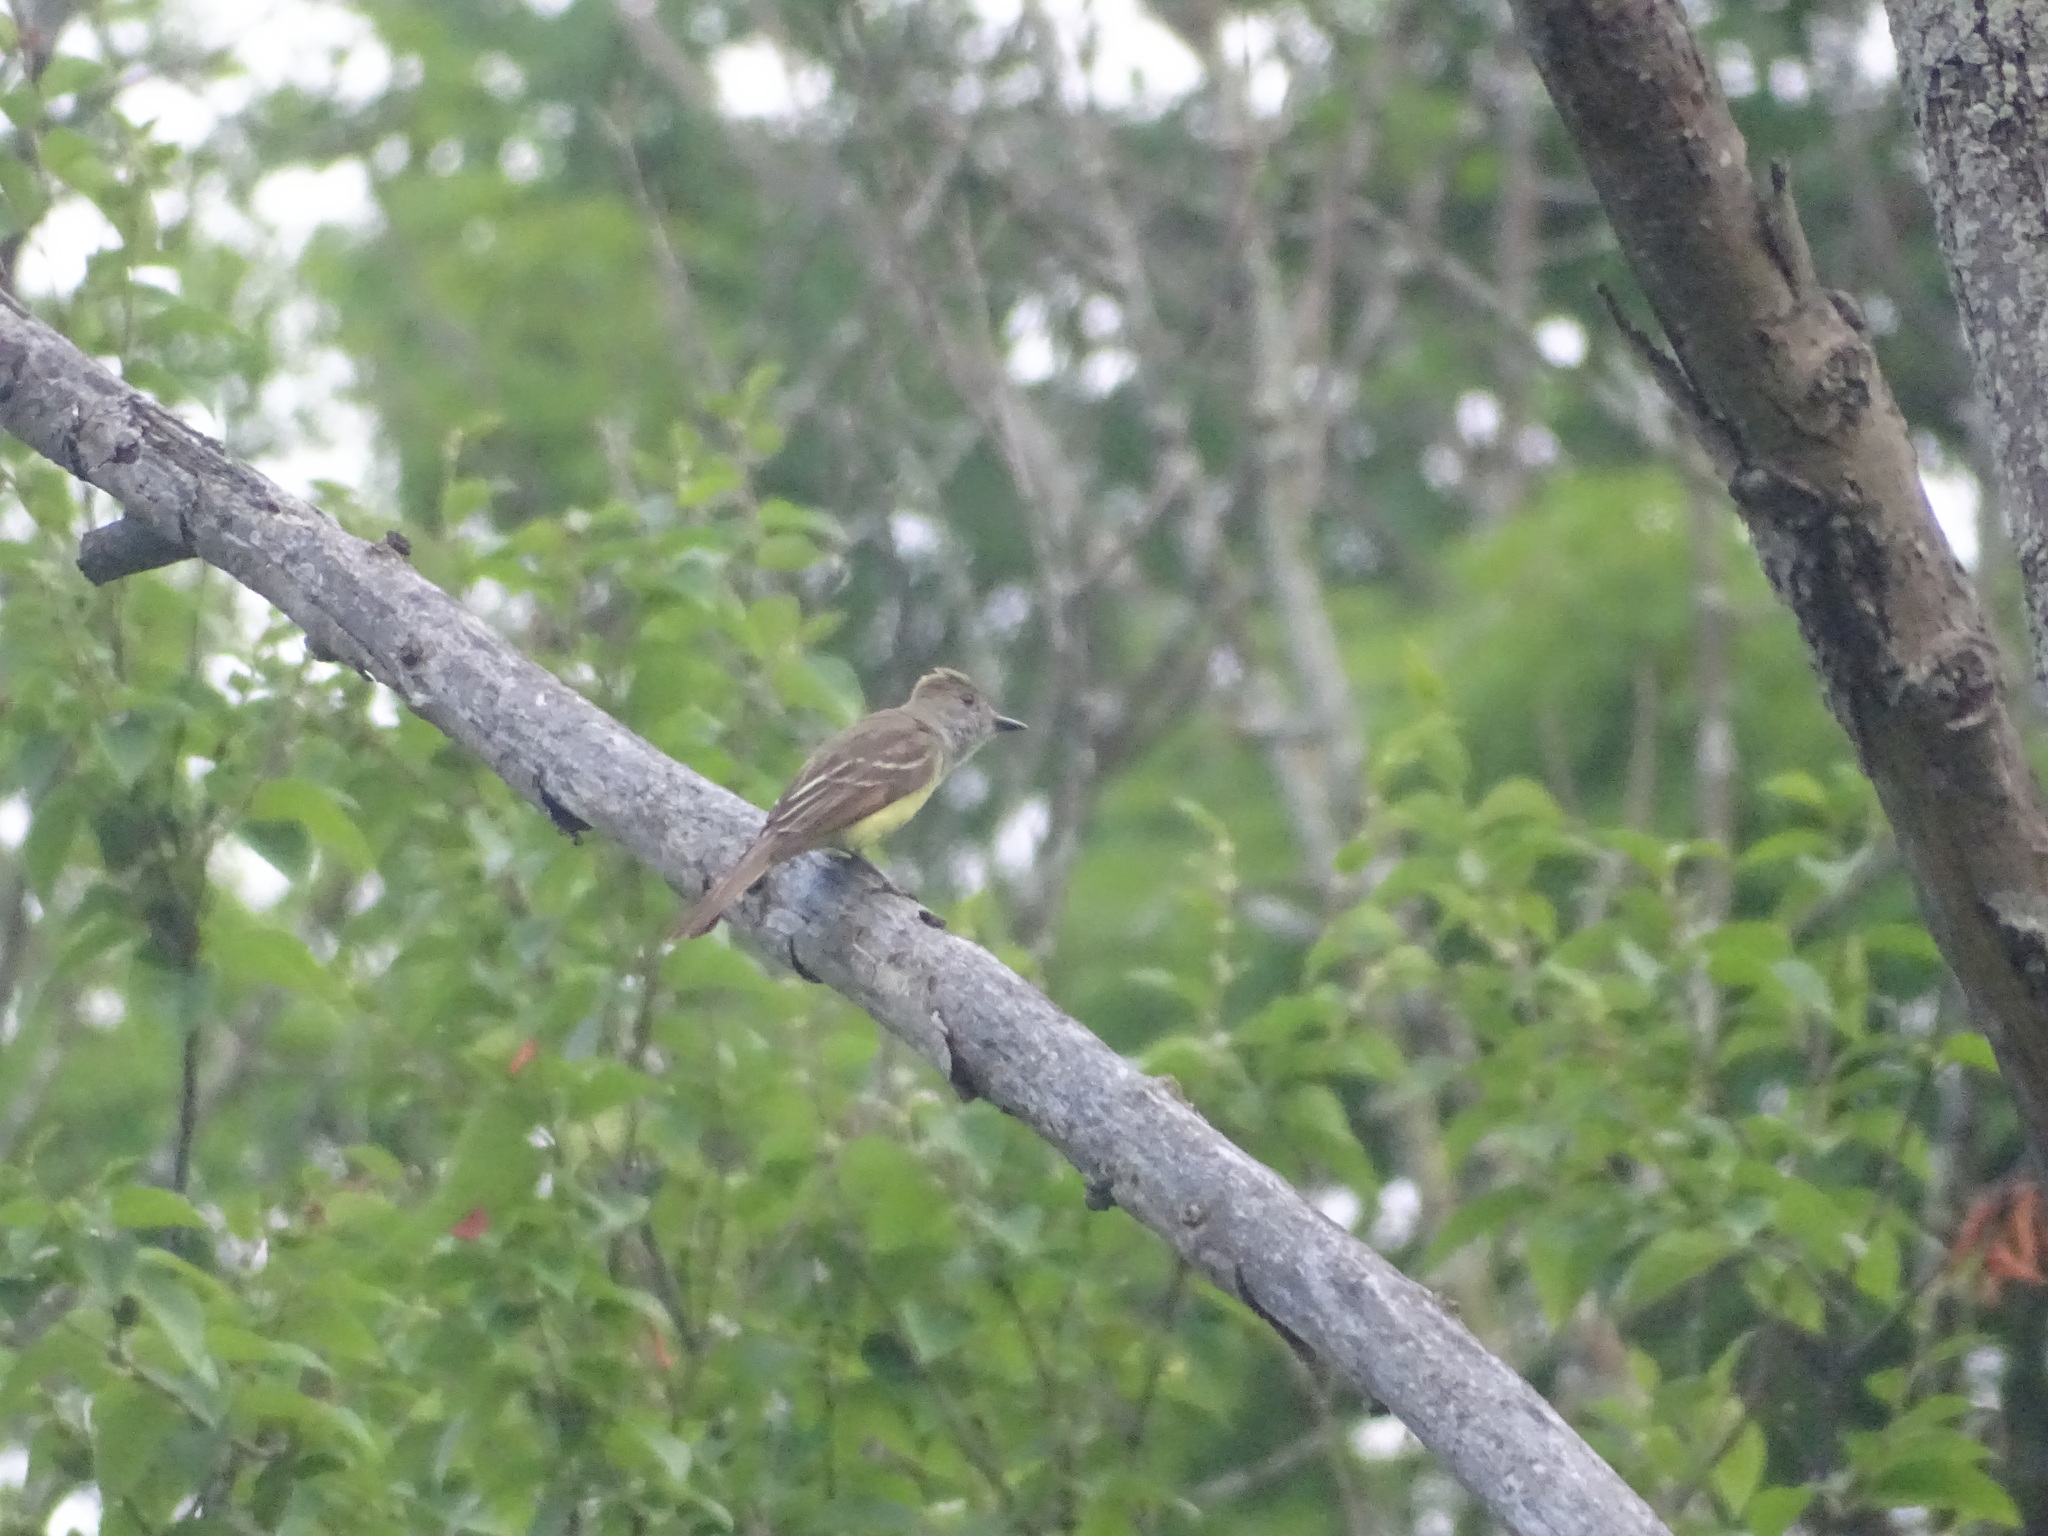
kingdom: Animalia
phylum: Chordata
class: Aves
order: Passeriformes
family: Tyrannidae
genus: Myiarchus
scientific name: Myiarchus crinitus
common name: Great crested flycatcher
